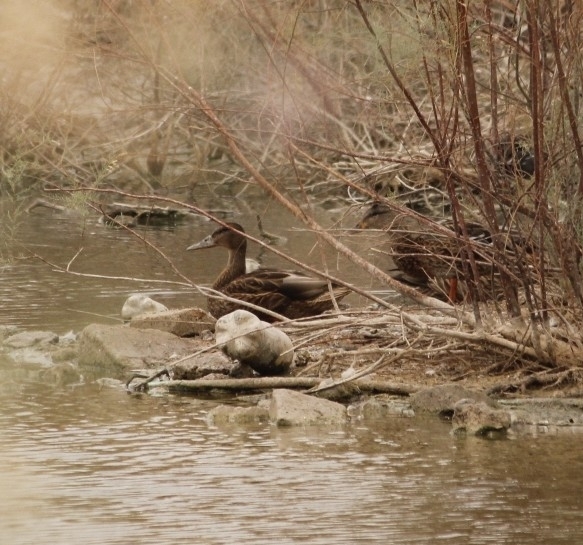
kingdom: Animalia
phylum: Chordata
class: Aves
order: Anseriformes
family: Anatidae
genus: Anas
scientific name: Anas platyrhynchos
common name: Mallard
